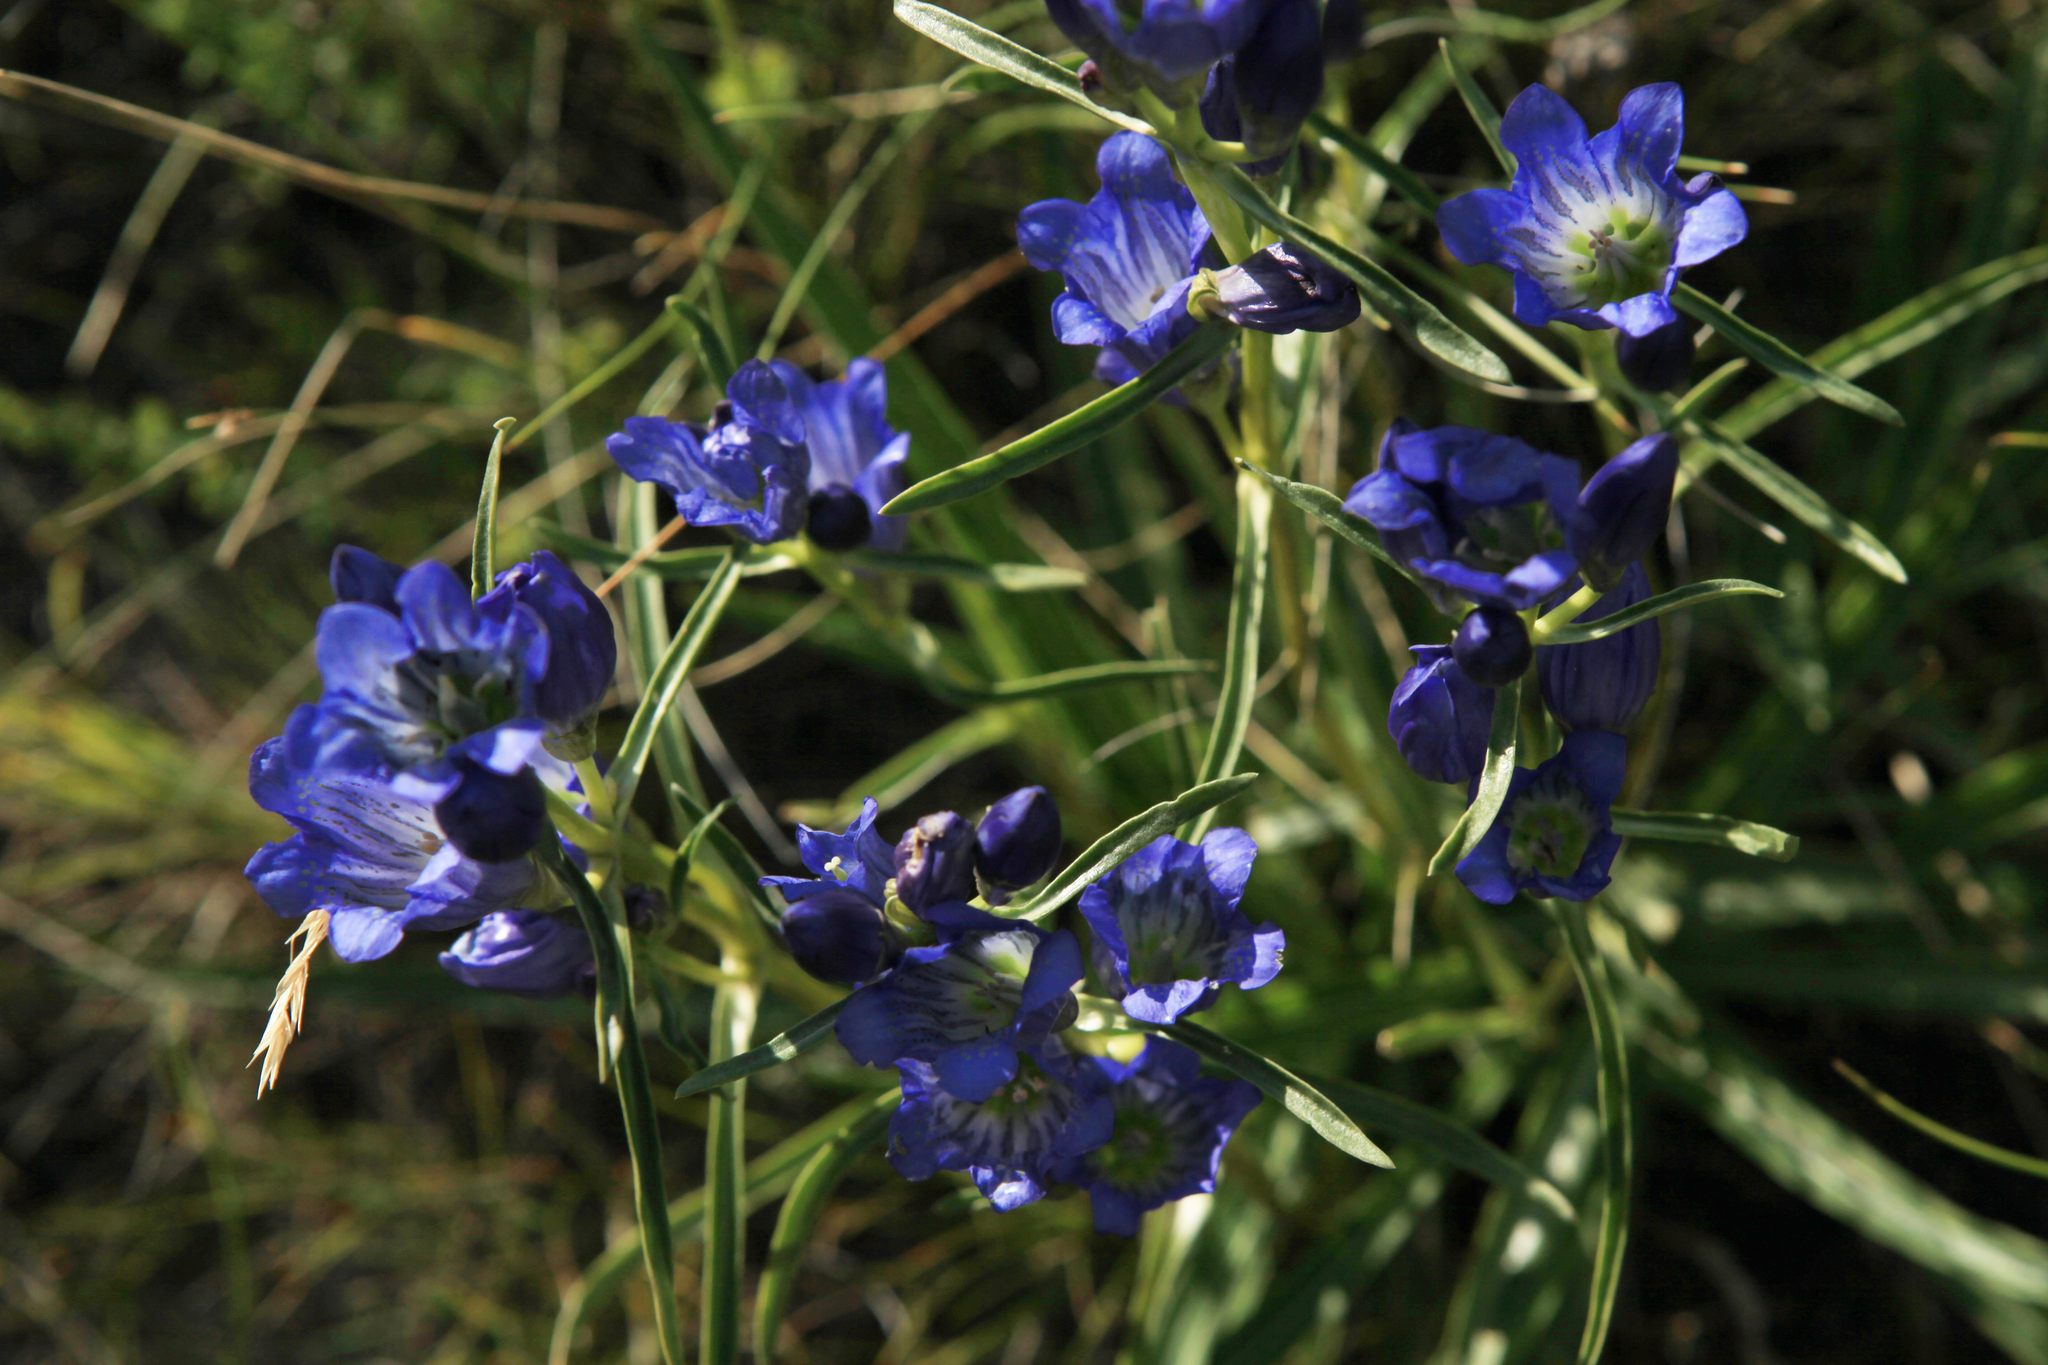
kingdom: Plantae
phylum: Tracheophyta
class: Magnoliopsida
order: Gentianales
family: Gentianaceae
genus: Gentiana
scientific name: Gentiana decumbens
